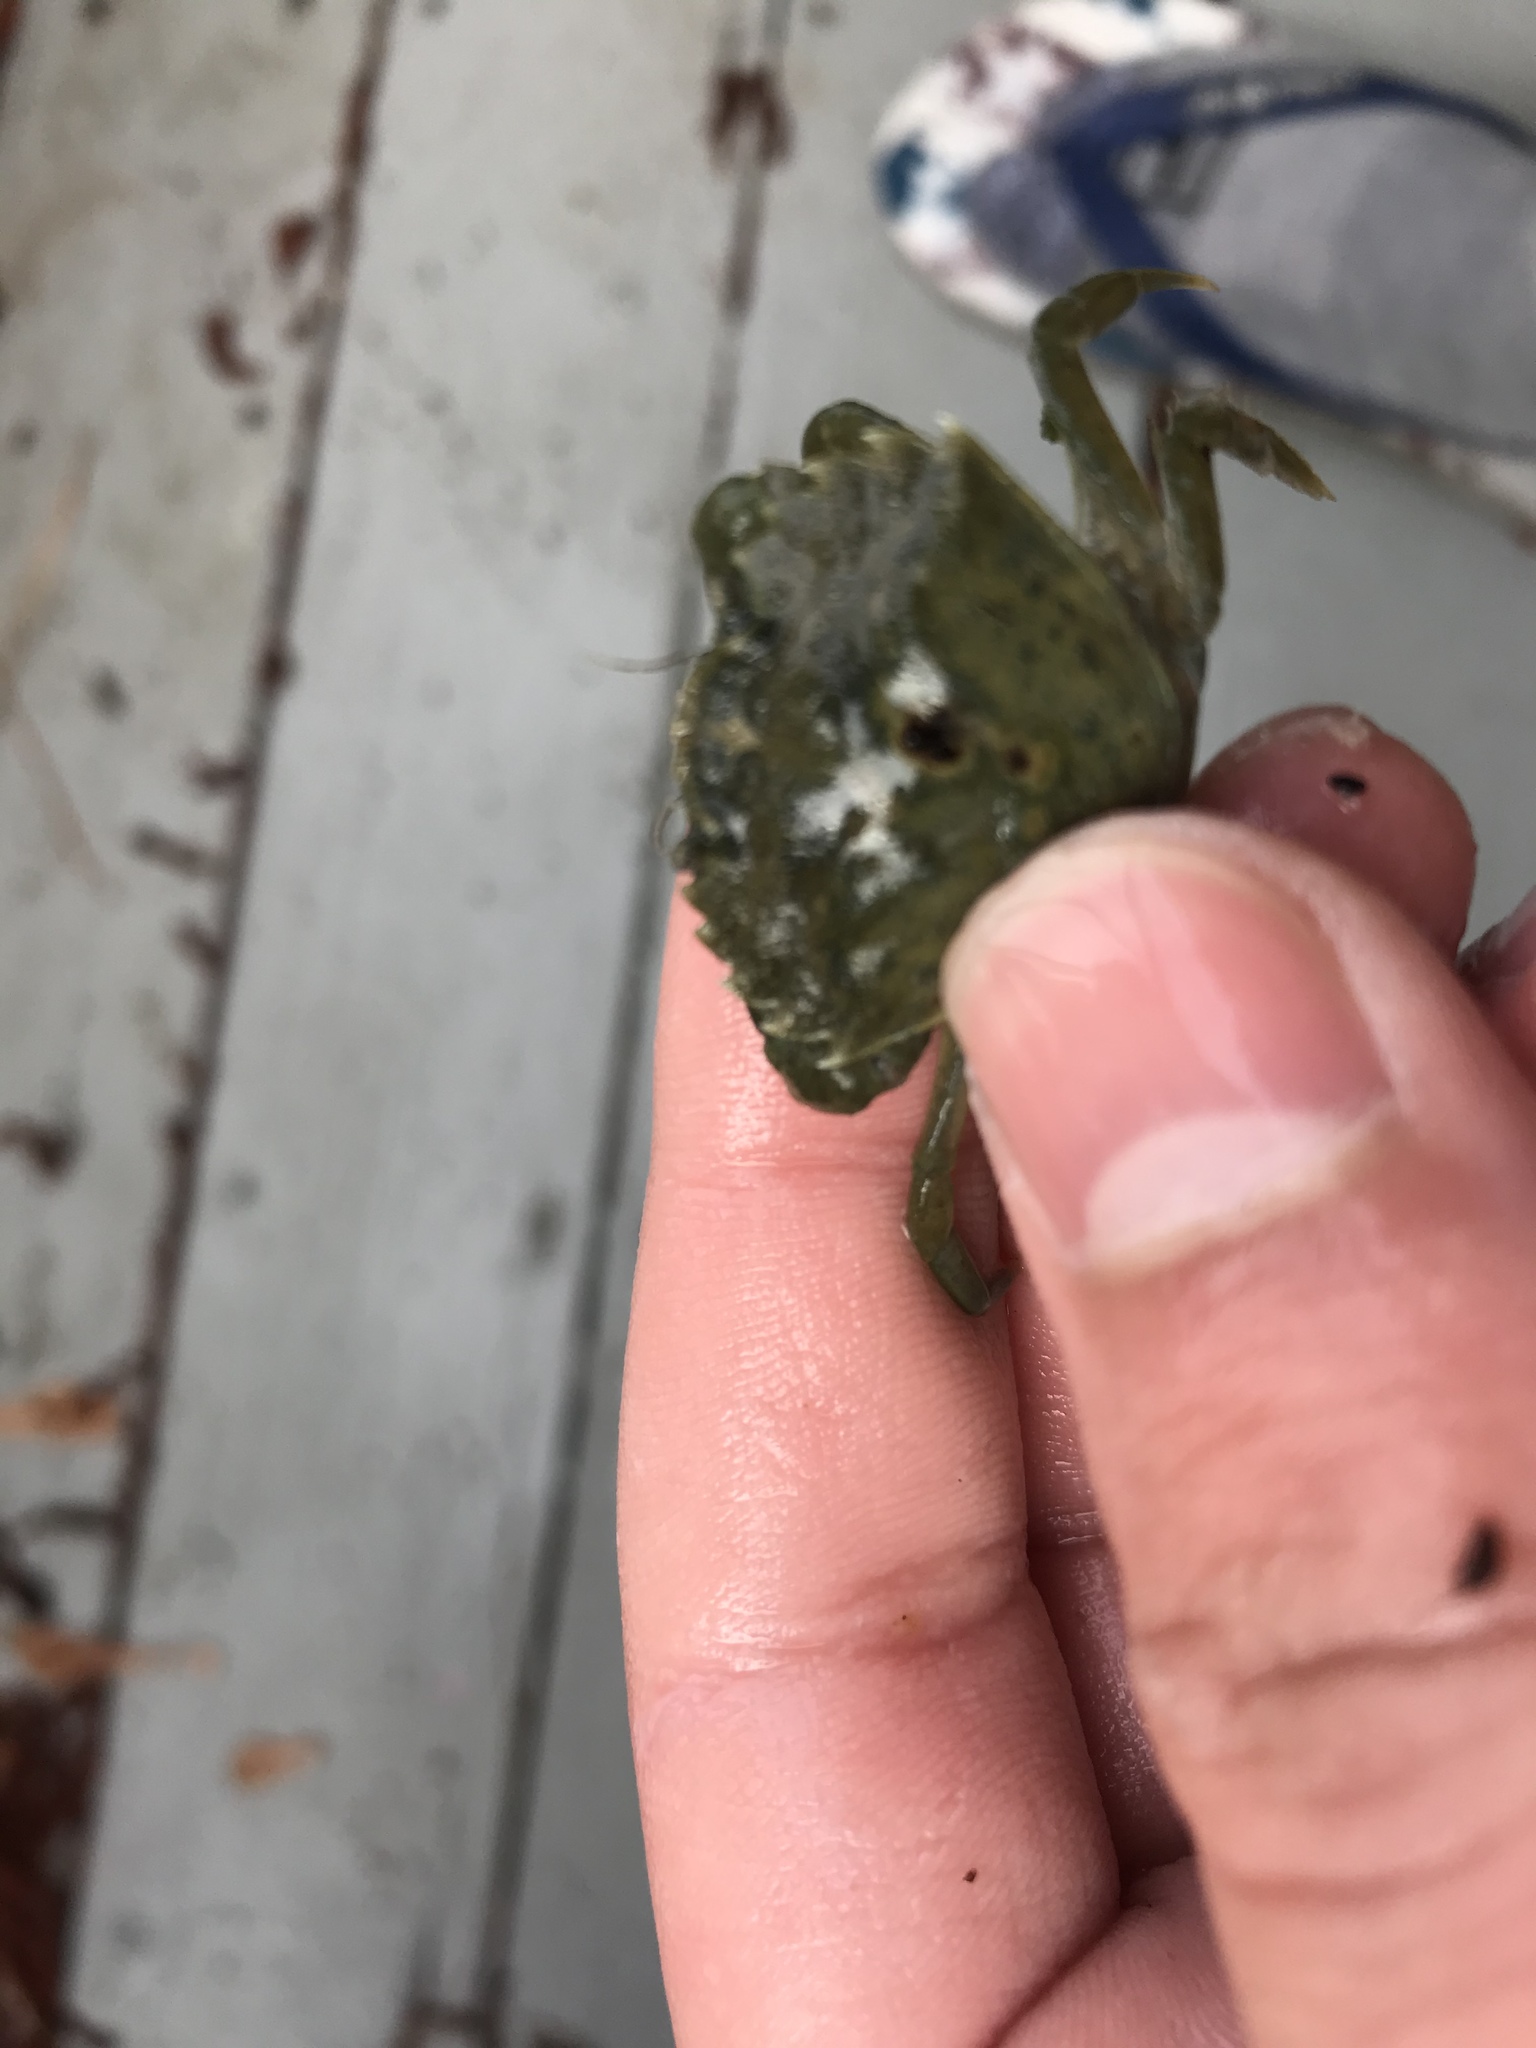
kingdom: Animalia
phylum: Arthropoda
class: Malacostraca
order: Decapoda
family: Carcinidae
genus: Carcinus
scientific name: Carcinus maenas
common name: European green crab
